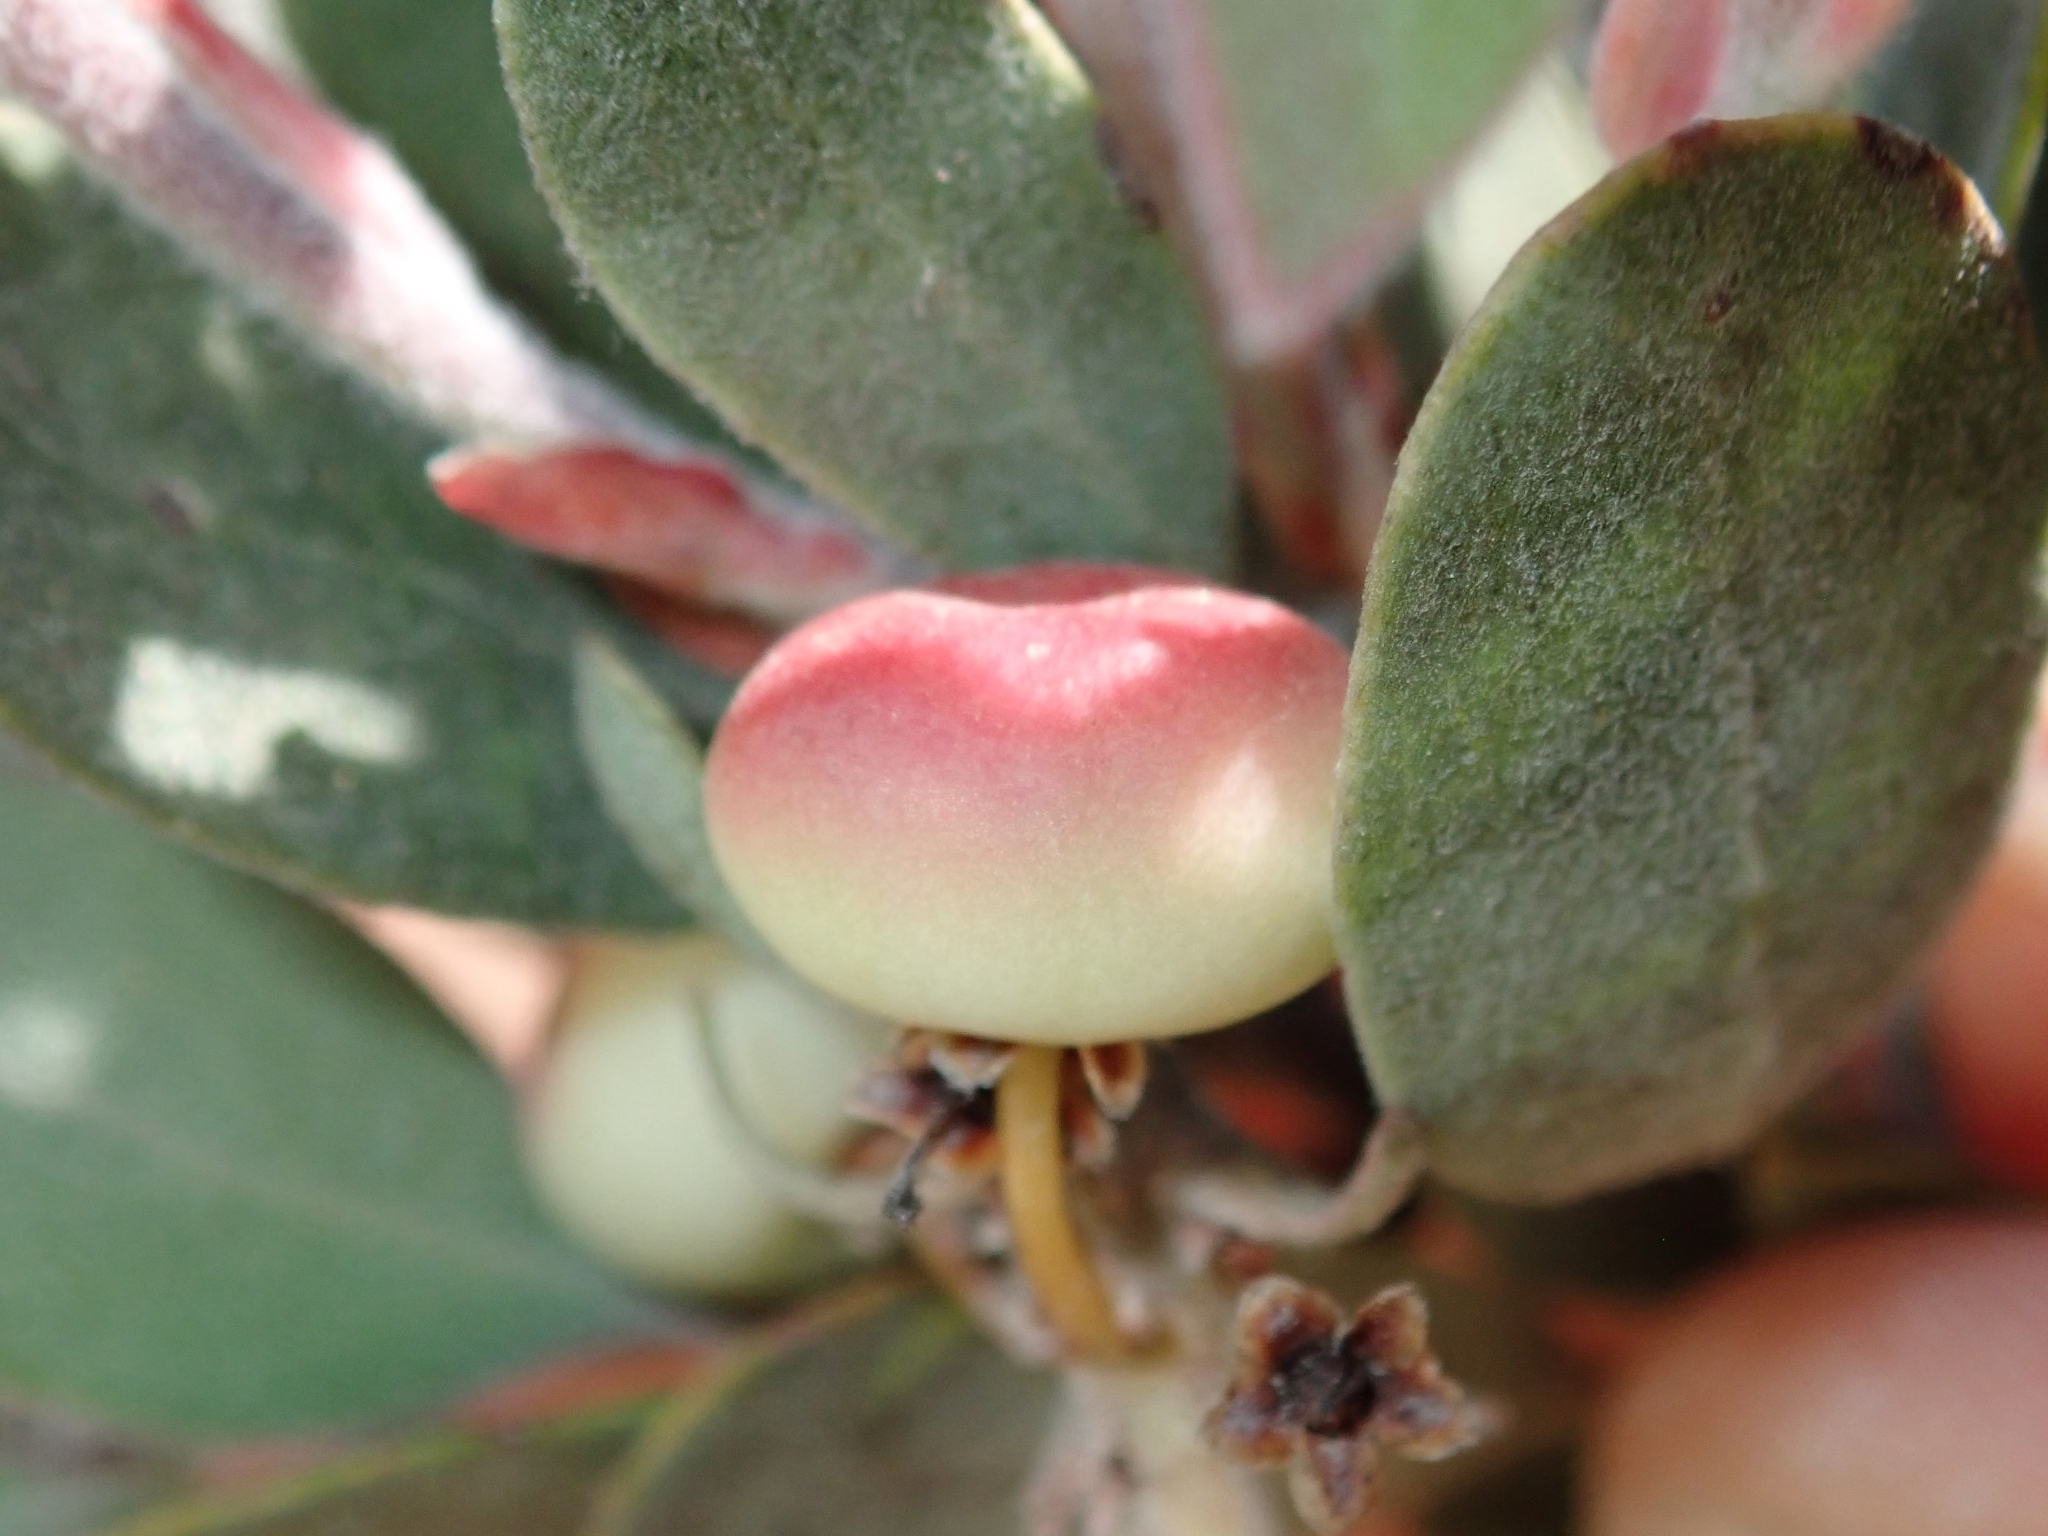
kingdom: Plantae
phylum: Tracheophyta
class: Magnoliopsida
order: Ericales
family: Ericaceae
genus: Arctostaphylos
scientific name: Arctostaphylos silvicola
